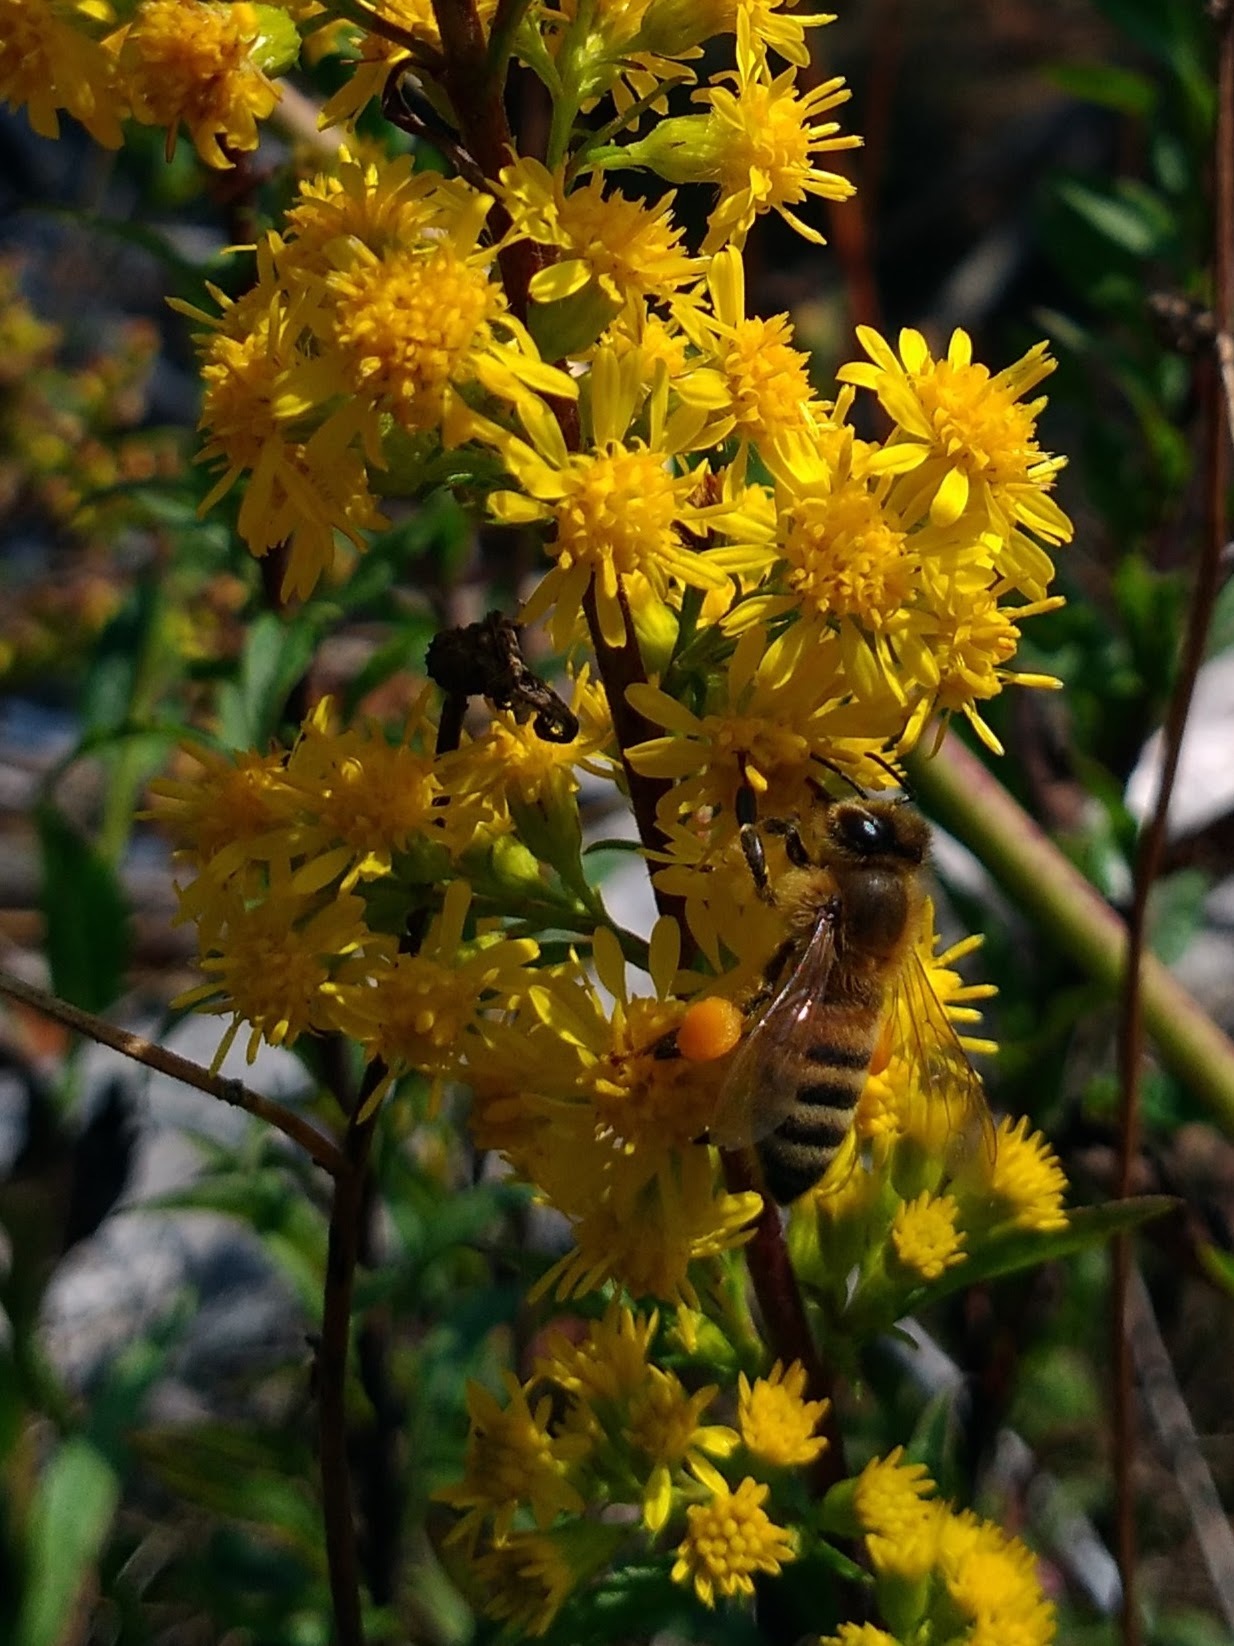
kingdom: Animalia
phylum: Arthropoda
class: Insecta
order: Hymenoptera
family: Apidae
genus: Apis
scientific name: Apis mellifera
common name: Honey bee
